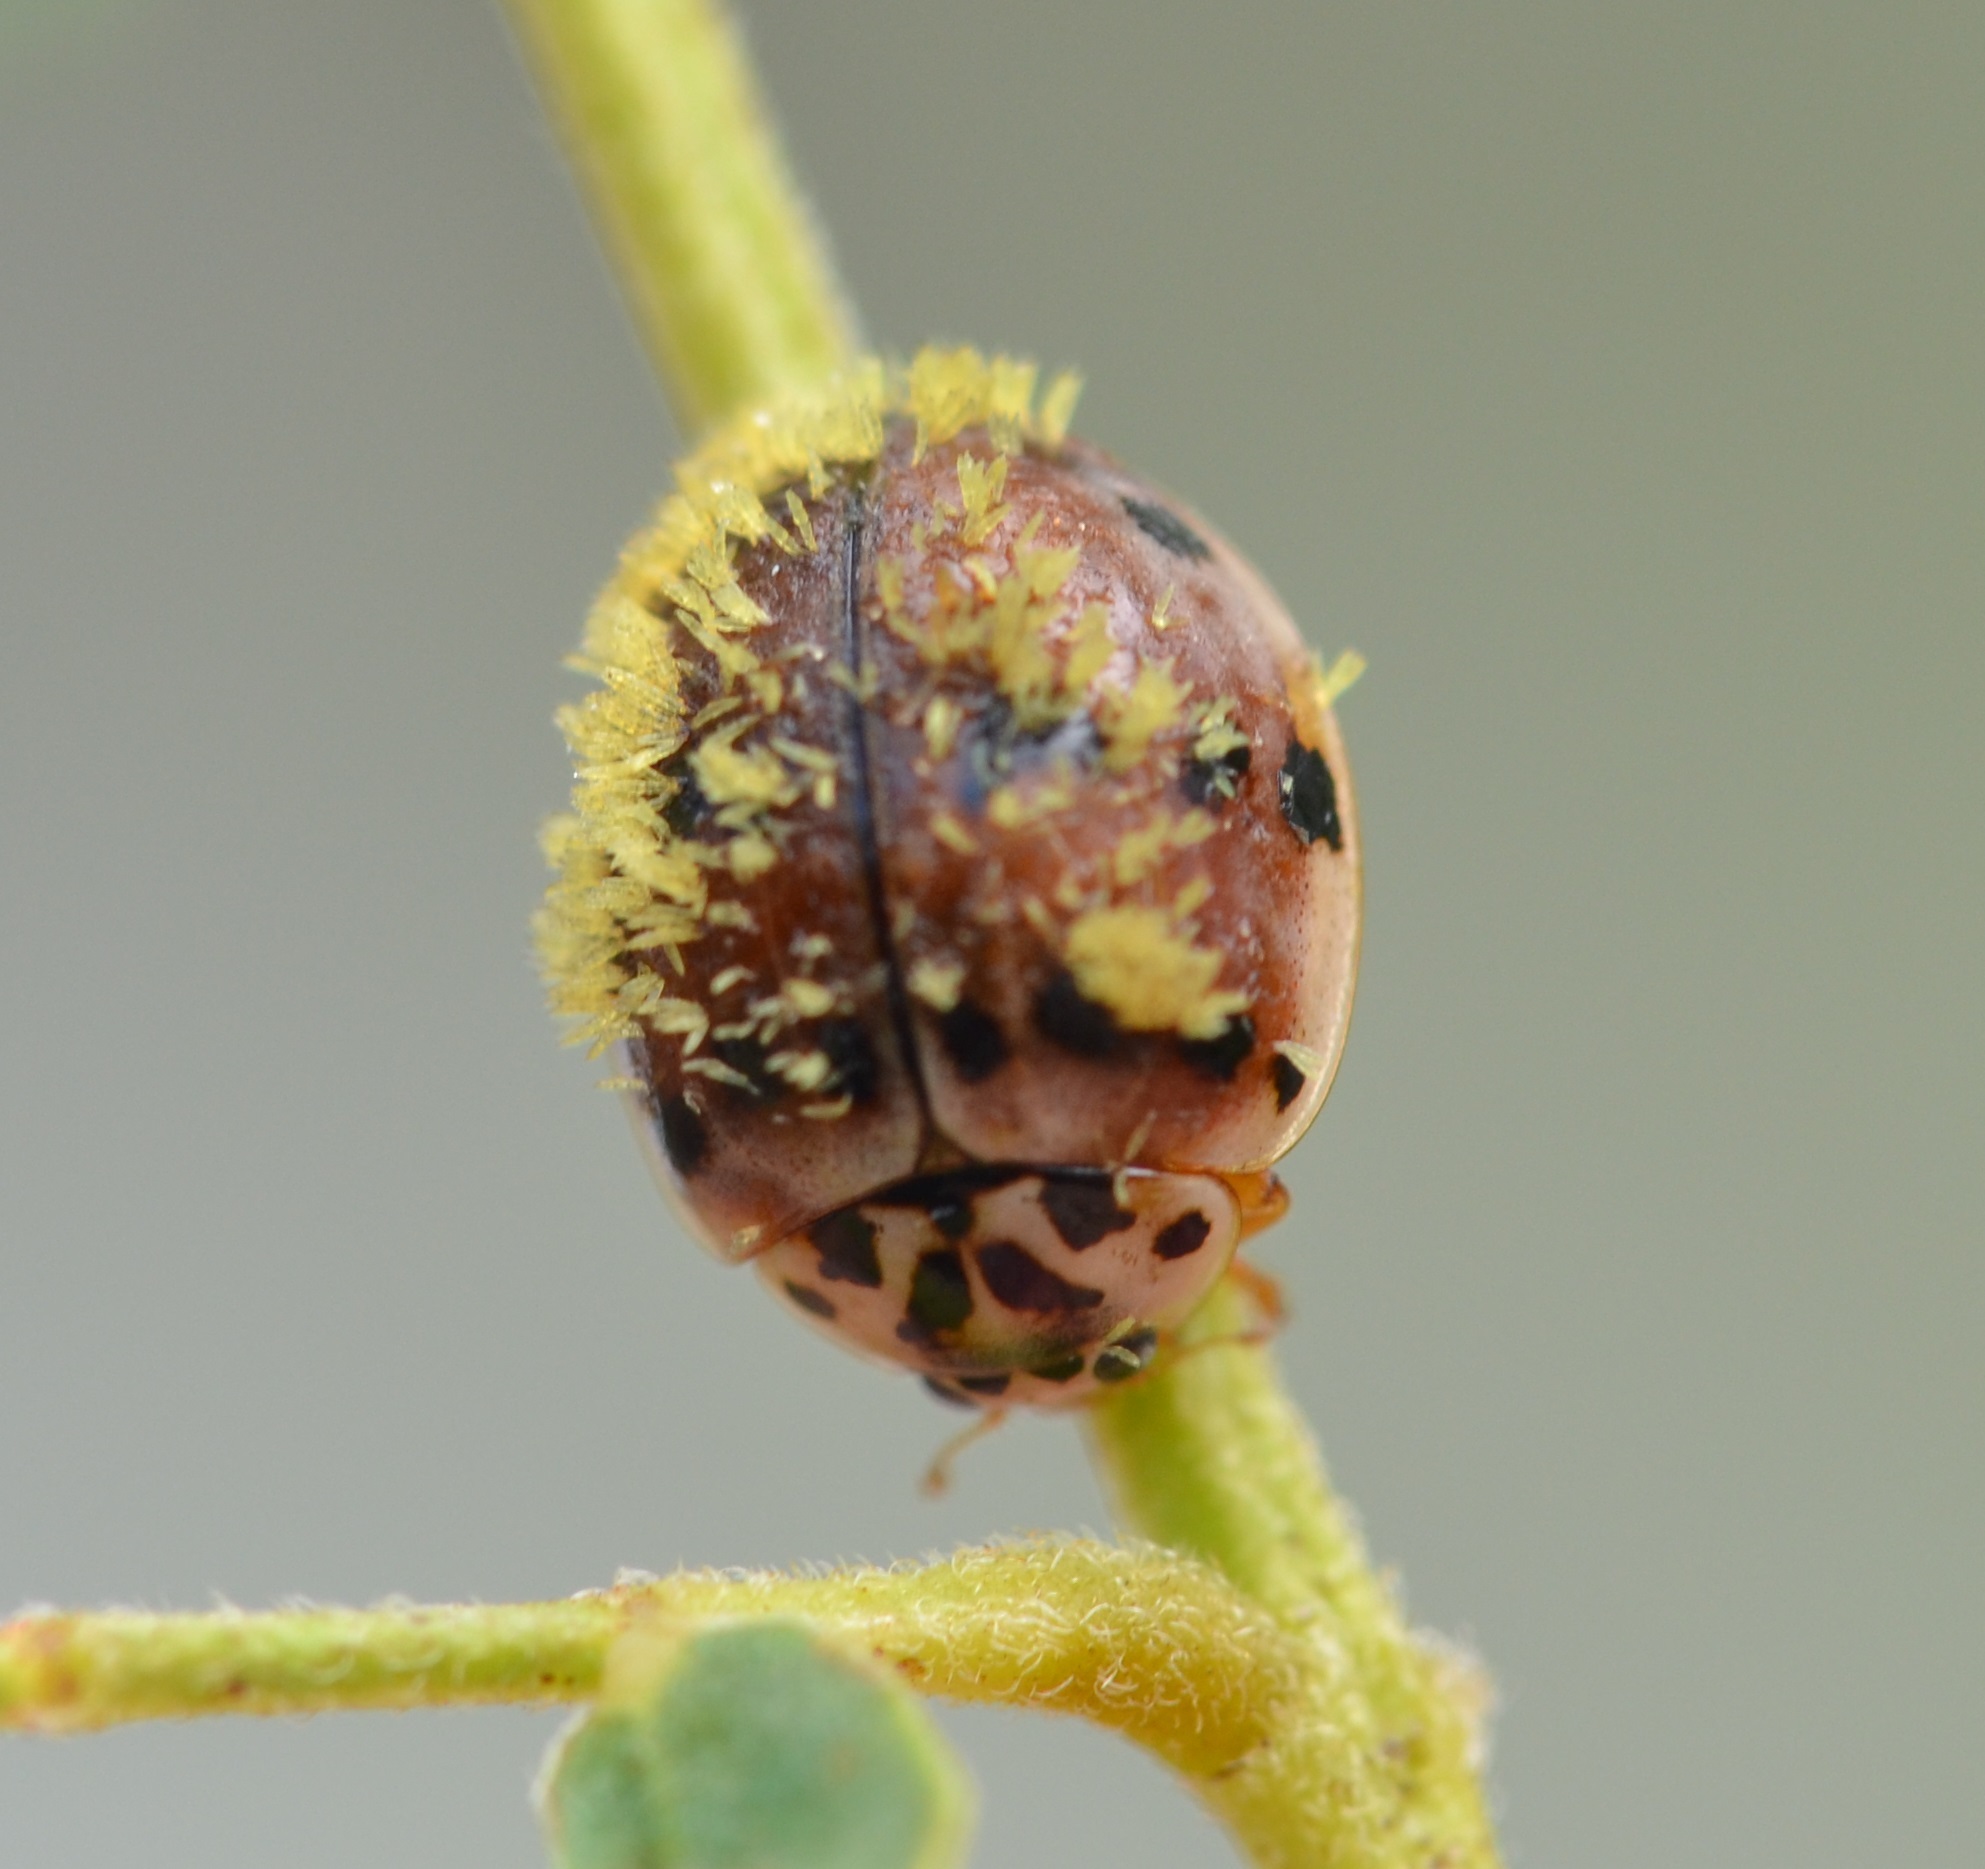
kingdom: Animalia
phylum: Arthropoda
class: Insecta
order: Coleoptera
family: Coccinellidae
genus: Olla
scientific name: Olla v-nigrum
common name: Ashy gray lady beetle
